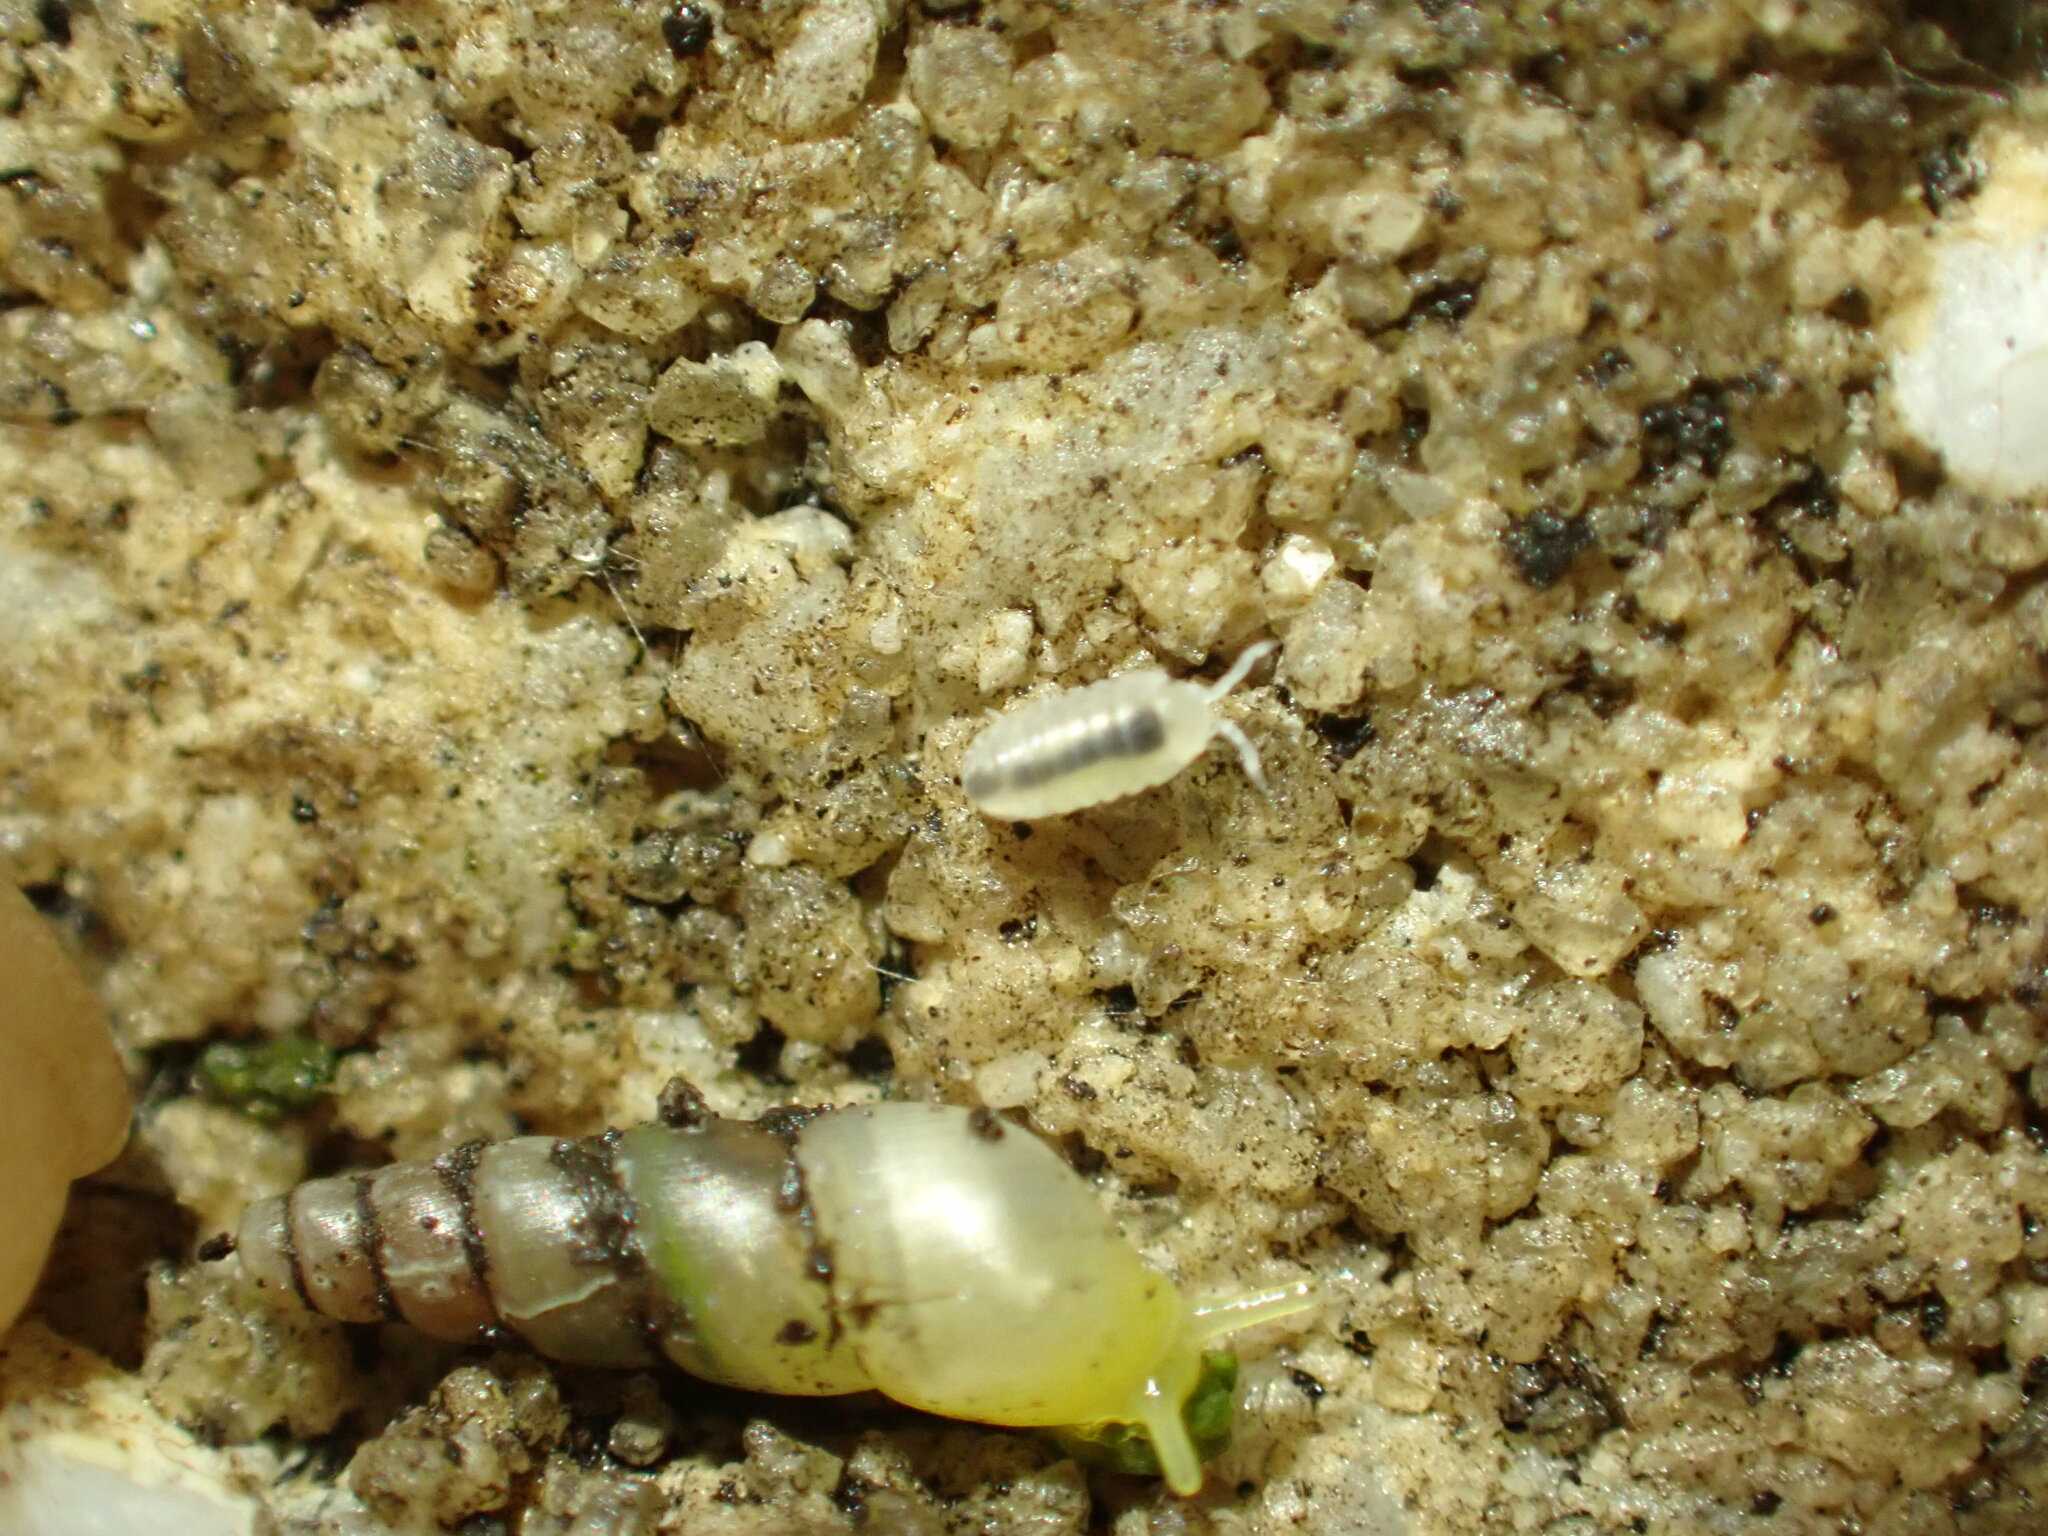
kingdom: Animalia
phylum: Arthropoda
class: Malacostraca
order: Isopoda
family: Armadillidiidae
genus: Armadillidium
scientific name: Armadillidium vulgare
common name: Common pill woodlouse
